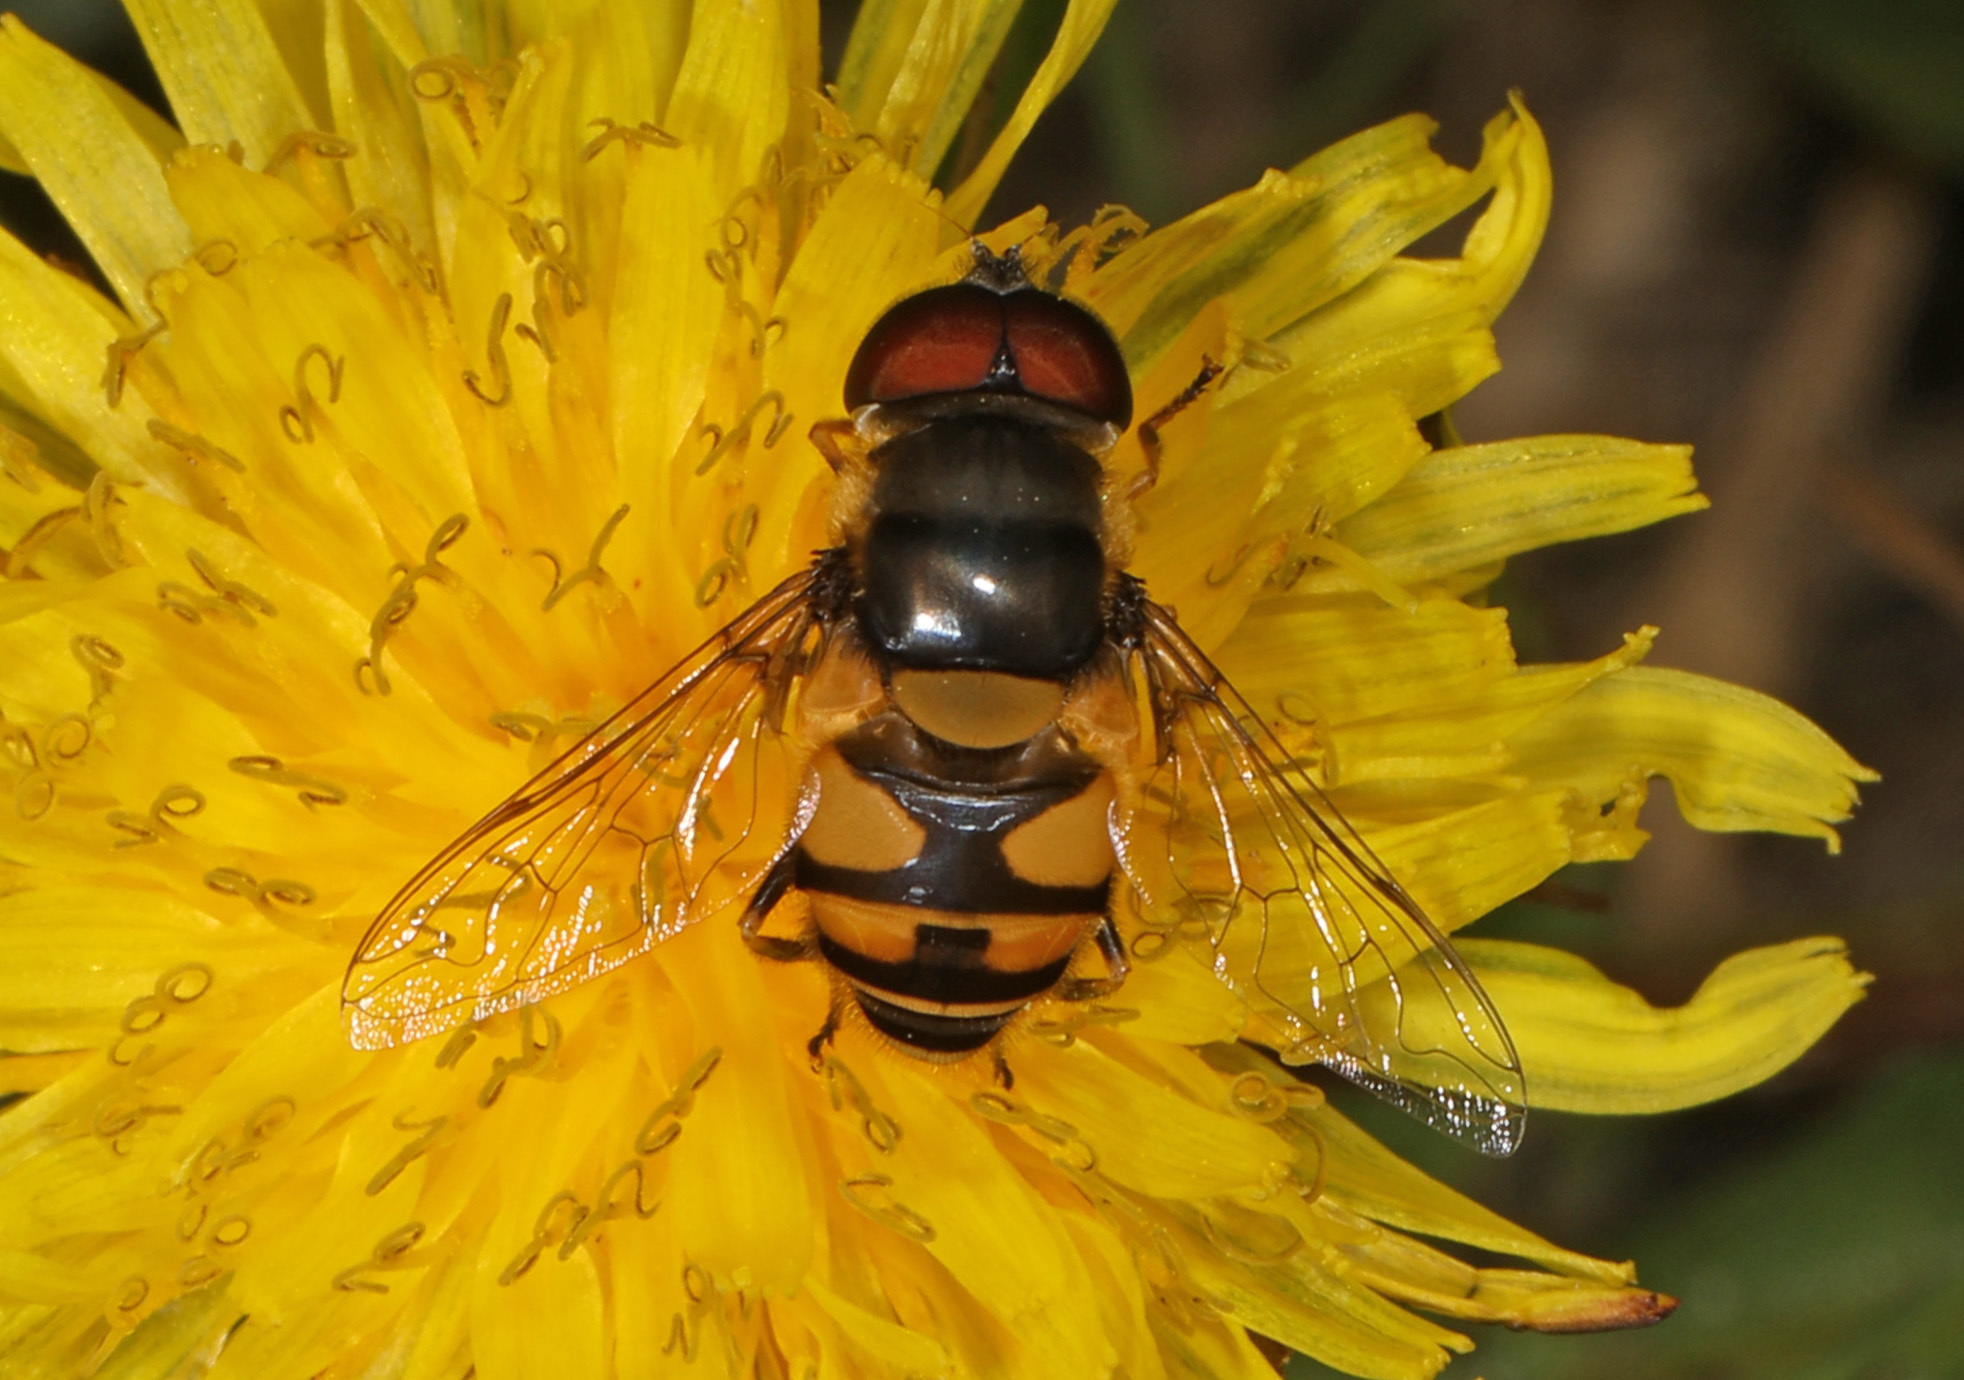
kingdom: Animalia
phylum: Arthropoda
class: Insecta
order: Diptera
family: Syrphidae
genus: Eristalis
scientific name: Eristalis transversa
